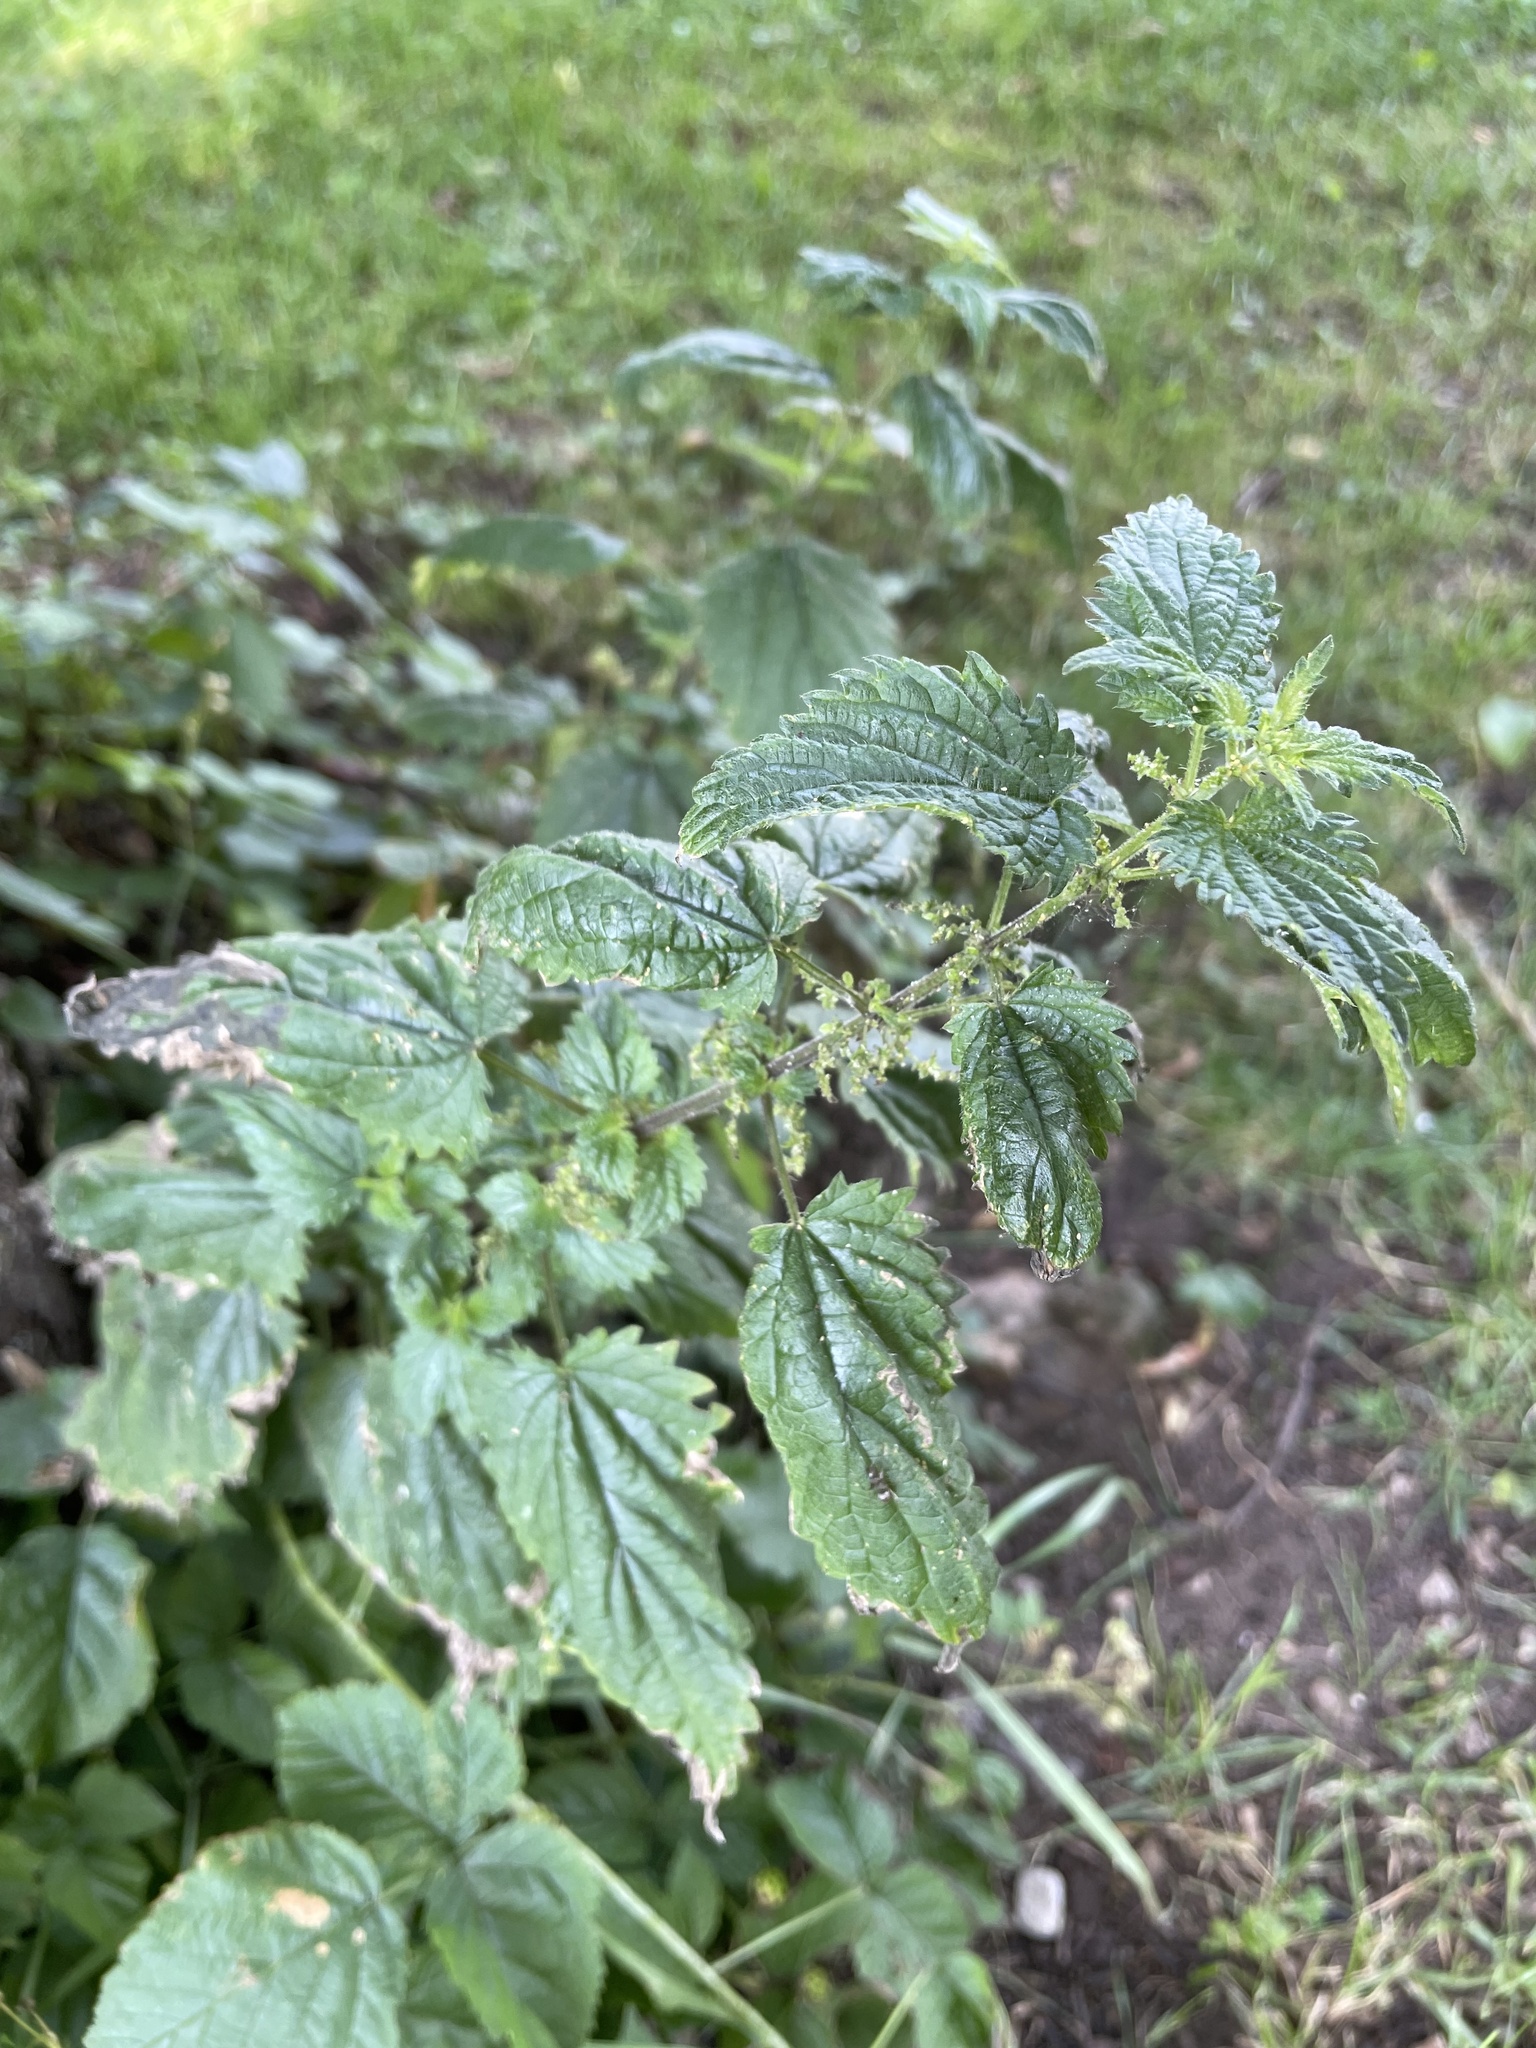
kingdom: Plantae
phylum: Tracheophyta
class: Magnoliopsida
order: Rosales
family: Urticaceae
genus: Urtica
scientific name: Urtica dioica
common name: Common nettle
